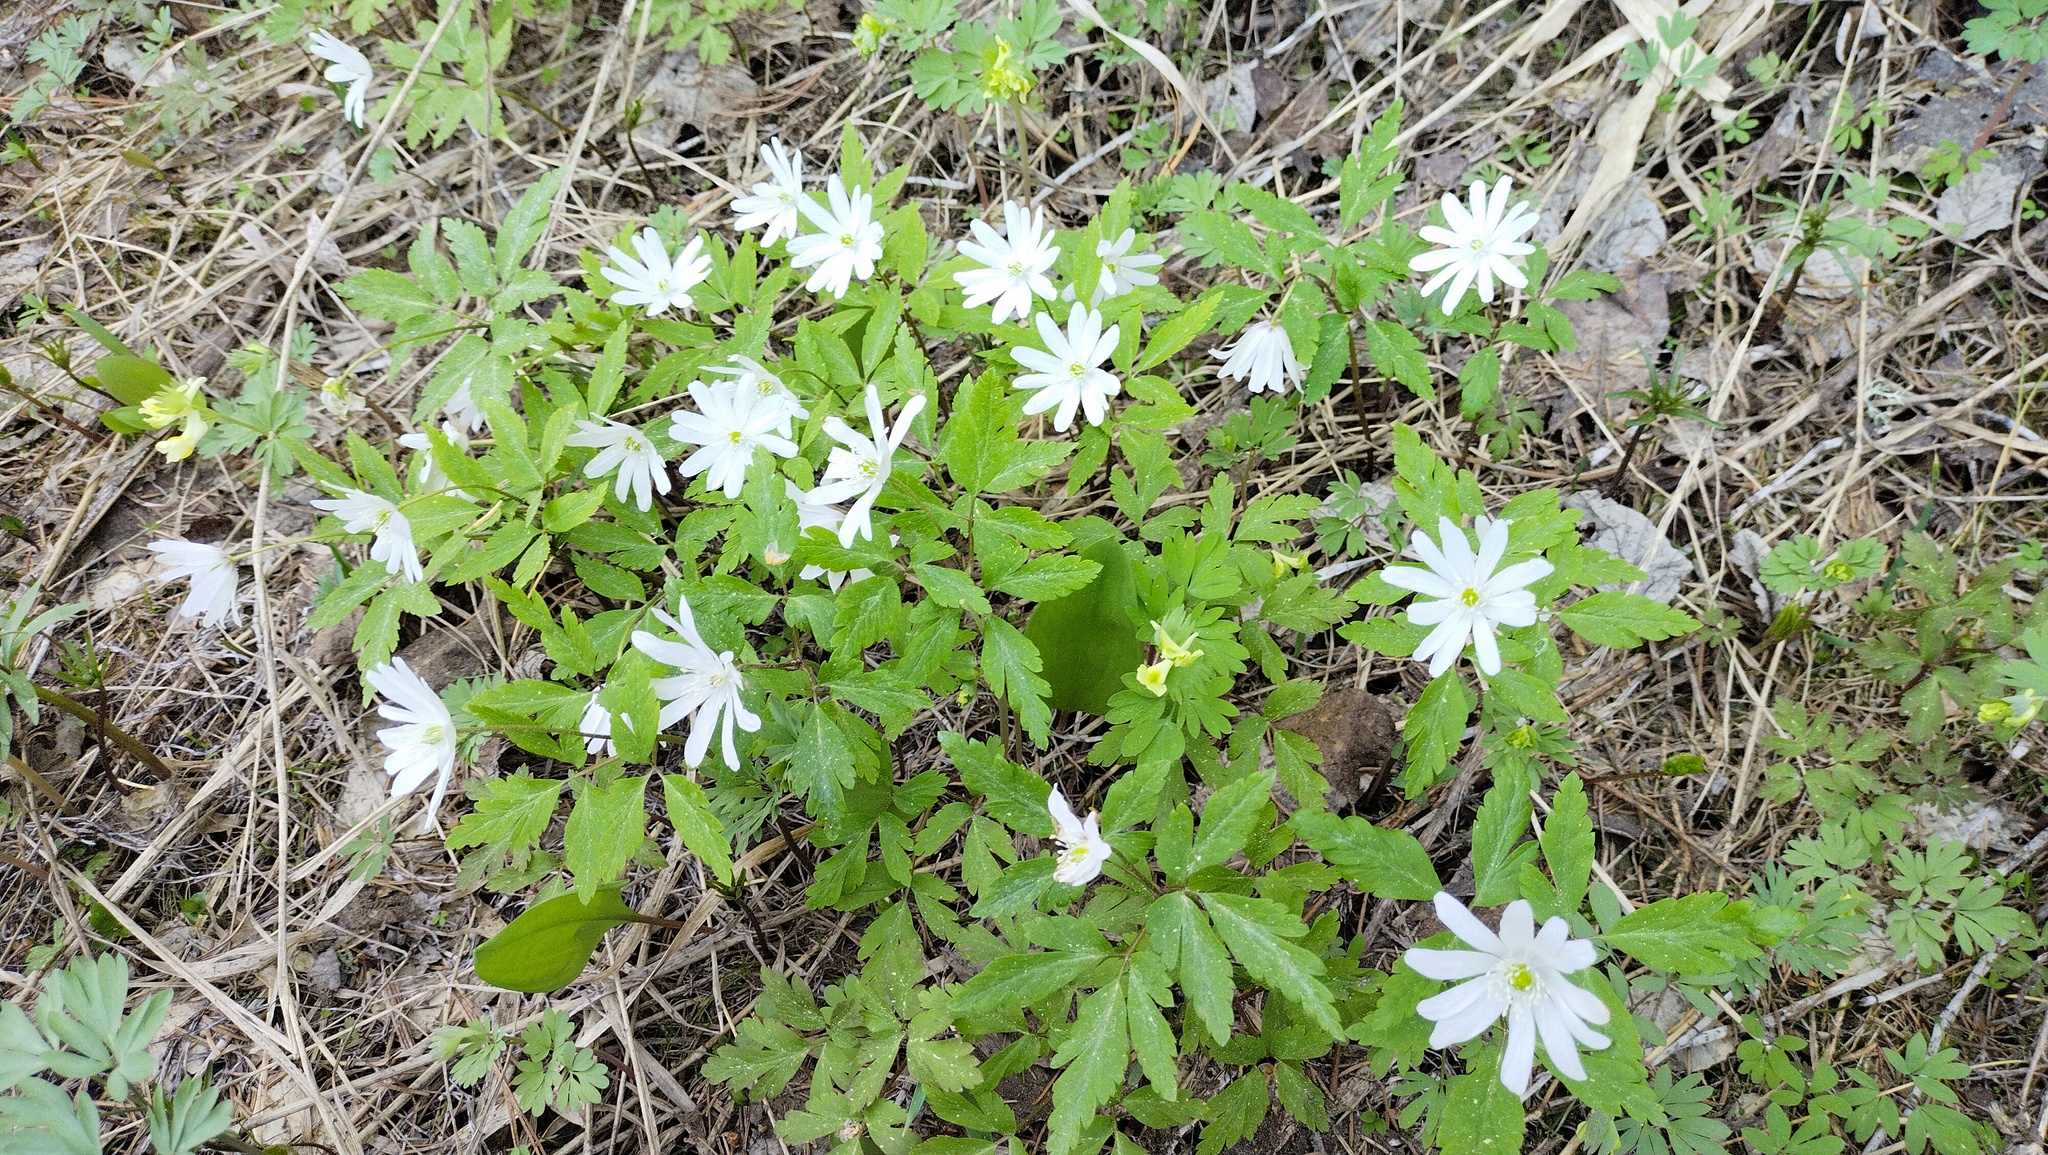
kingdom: Plantae
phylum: Tracheophyta
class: Magnoliopsida
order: Ranunculales
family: Ranunculaceae
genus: Anemone
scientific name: Anemone altaica
